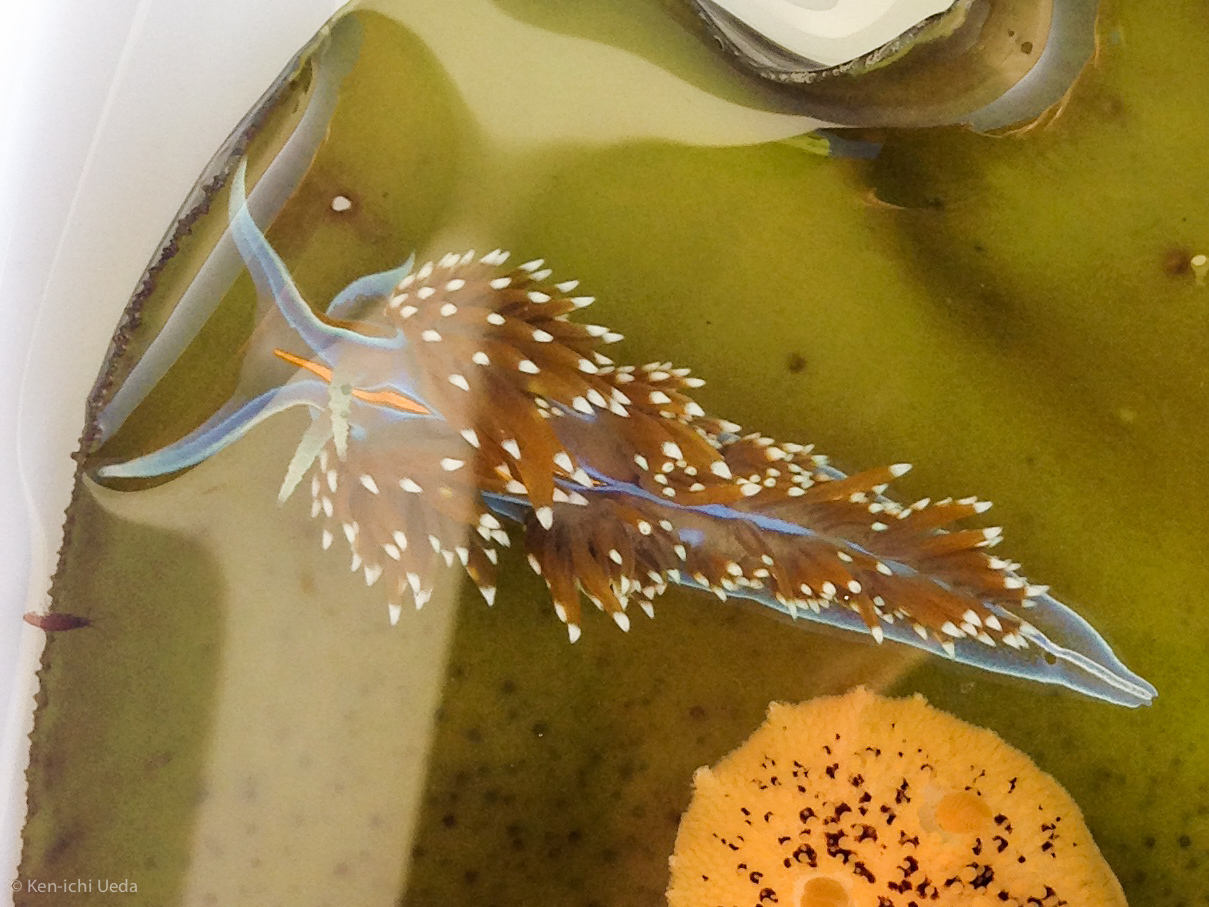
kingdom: Animalia
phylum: Mollusca
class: Gastropoda
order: Nudibranchia
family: Myrrhinidae
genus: Hermissenda
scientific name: Hermissenda opalescens
